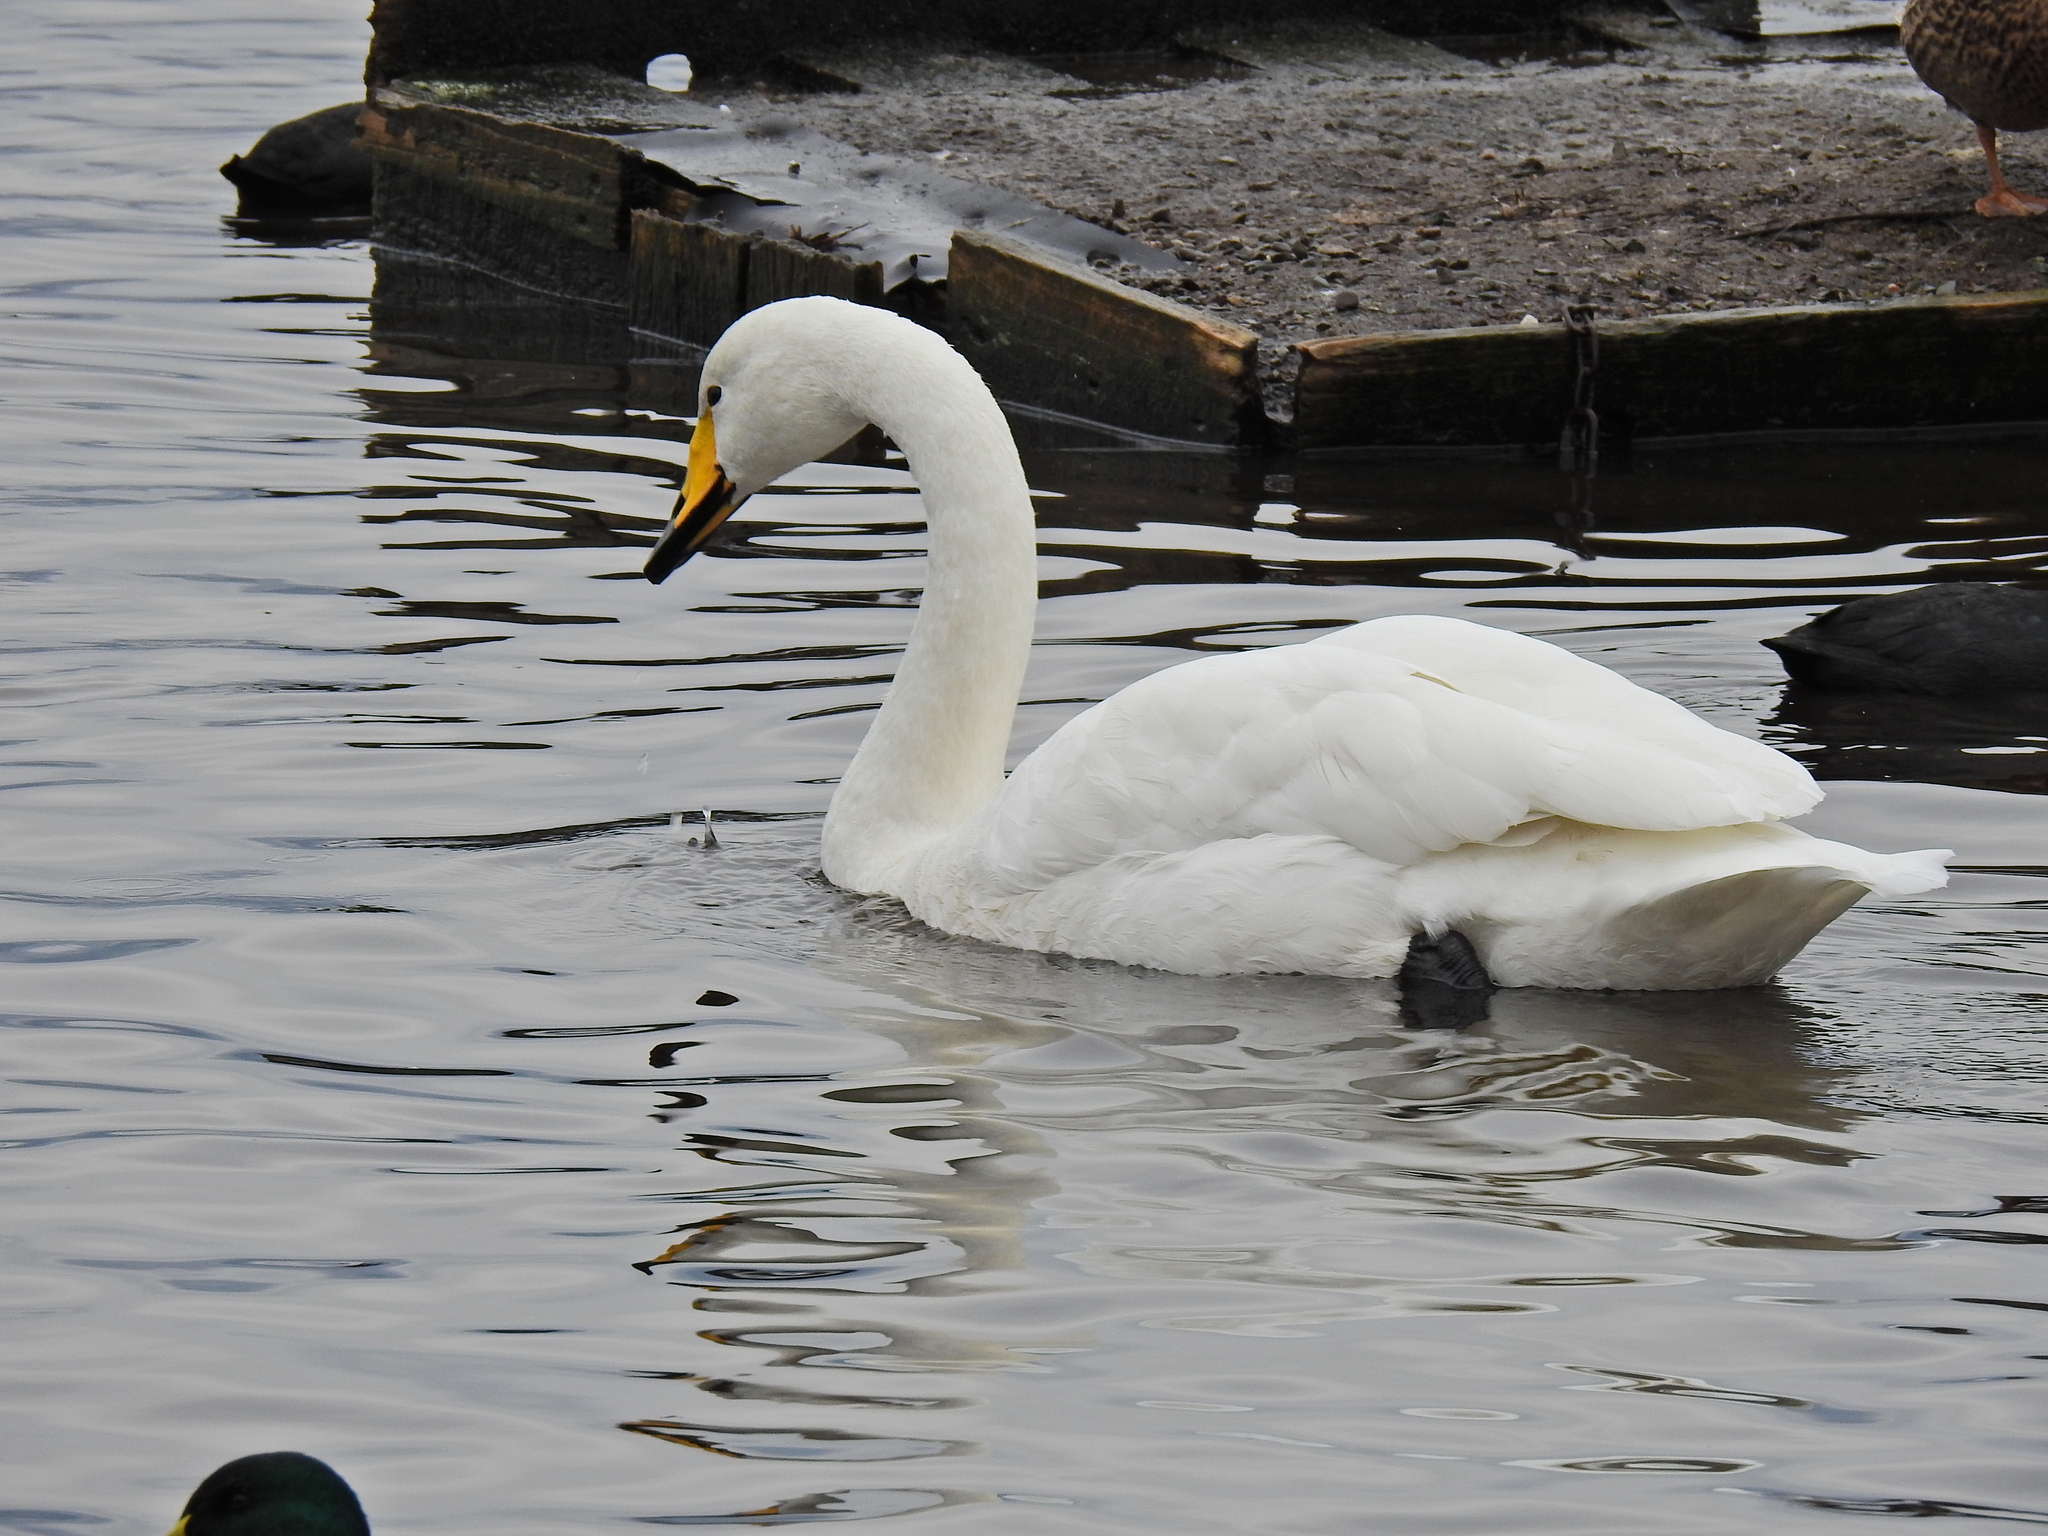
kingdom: Animalia
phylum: Chordata
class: Aves
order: Anseriformes
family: Anatidae
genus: Cygnus
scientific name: Cygnus cygnus
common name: Whooper swan
